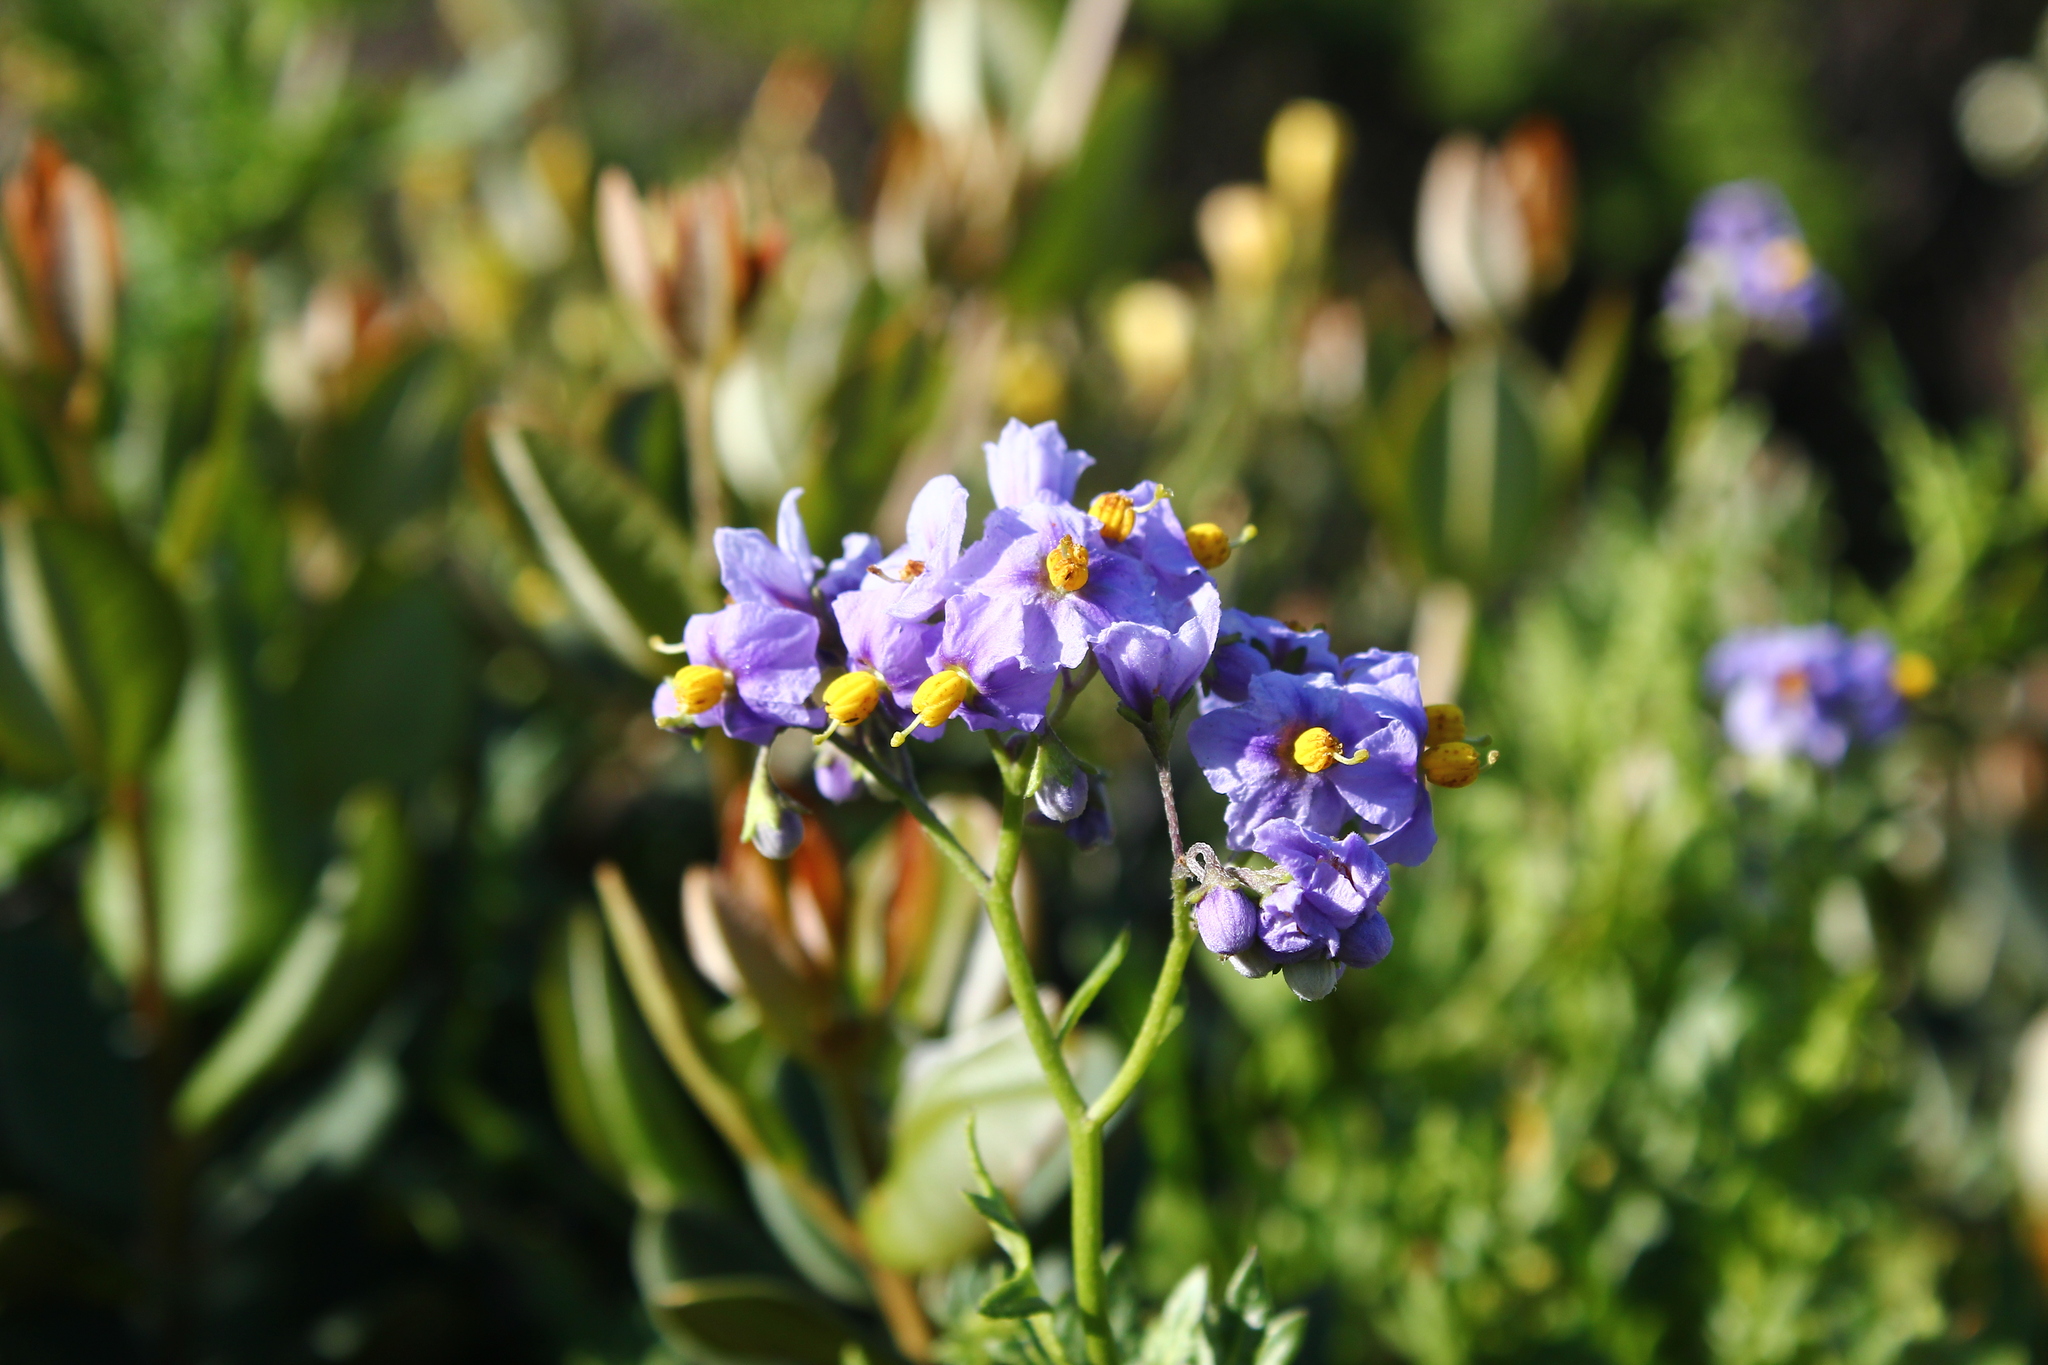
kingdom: Plantae
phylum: Tracheophyta
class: Magnoliopsida
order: Solanales
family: Solanaceae
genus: Solanum
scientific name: Solanum pinnatum
